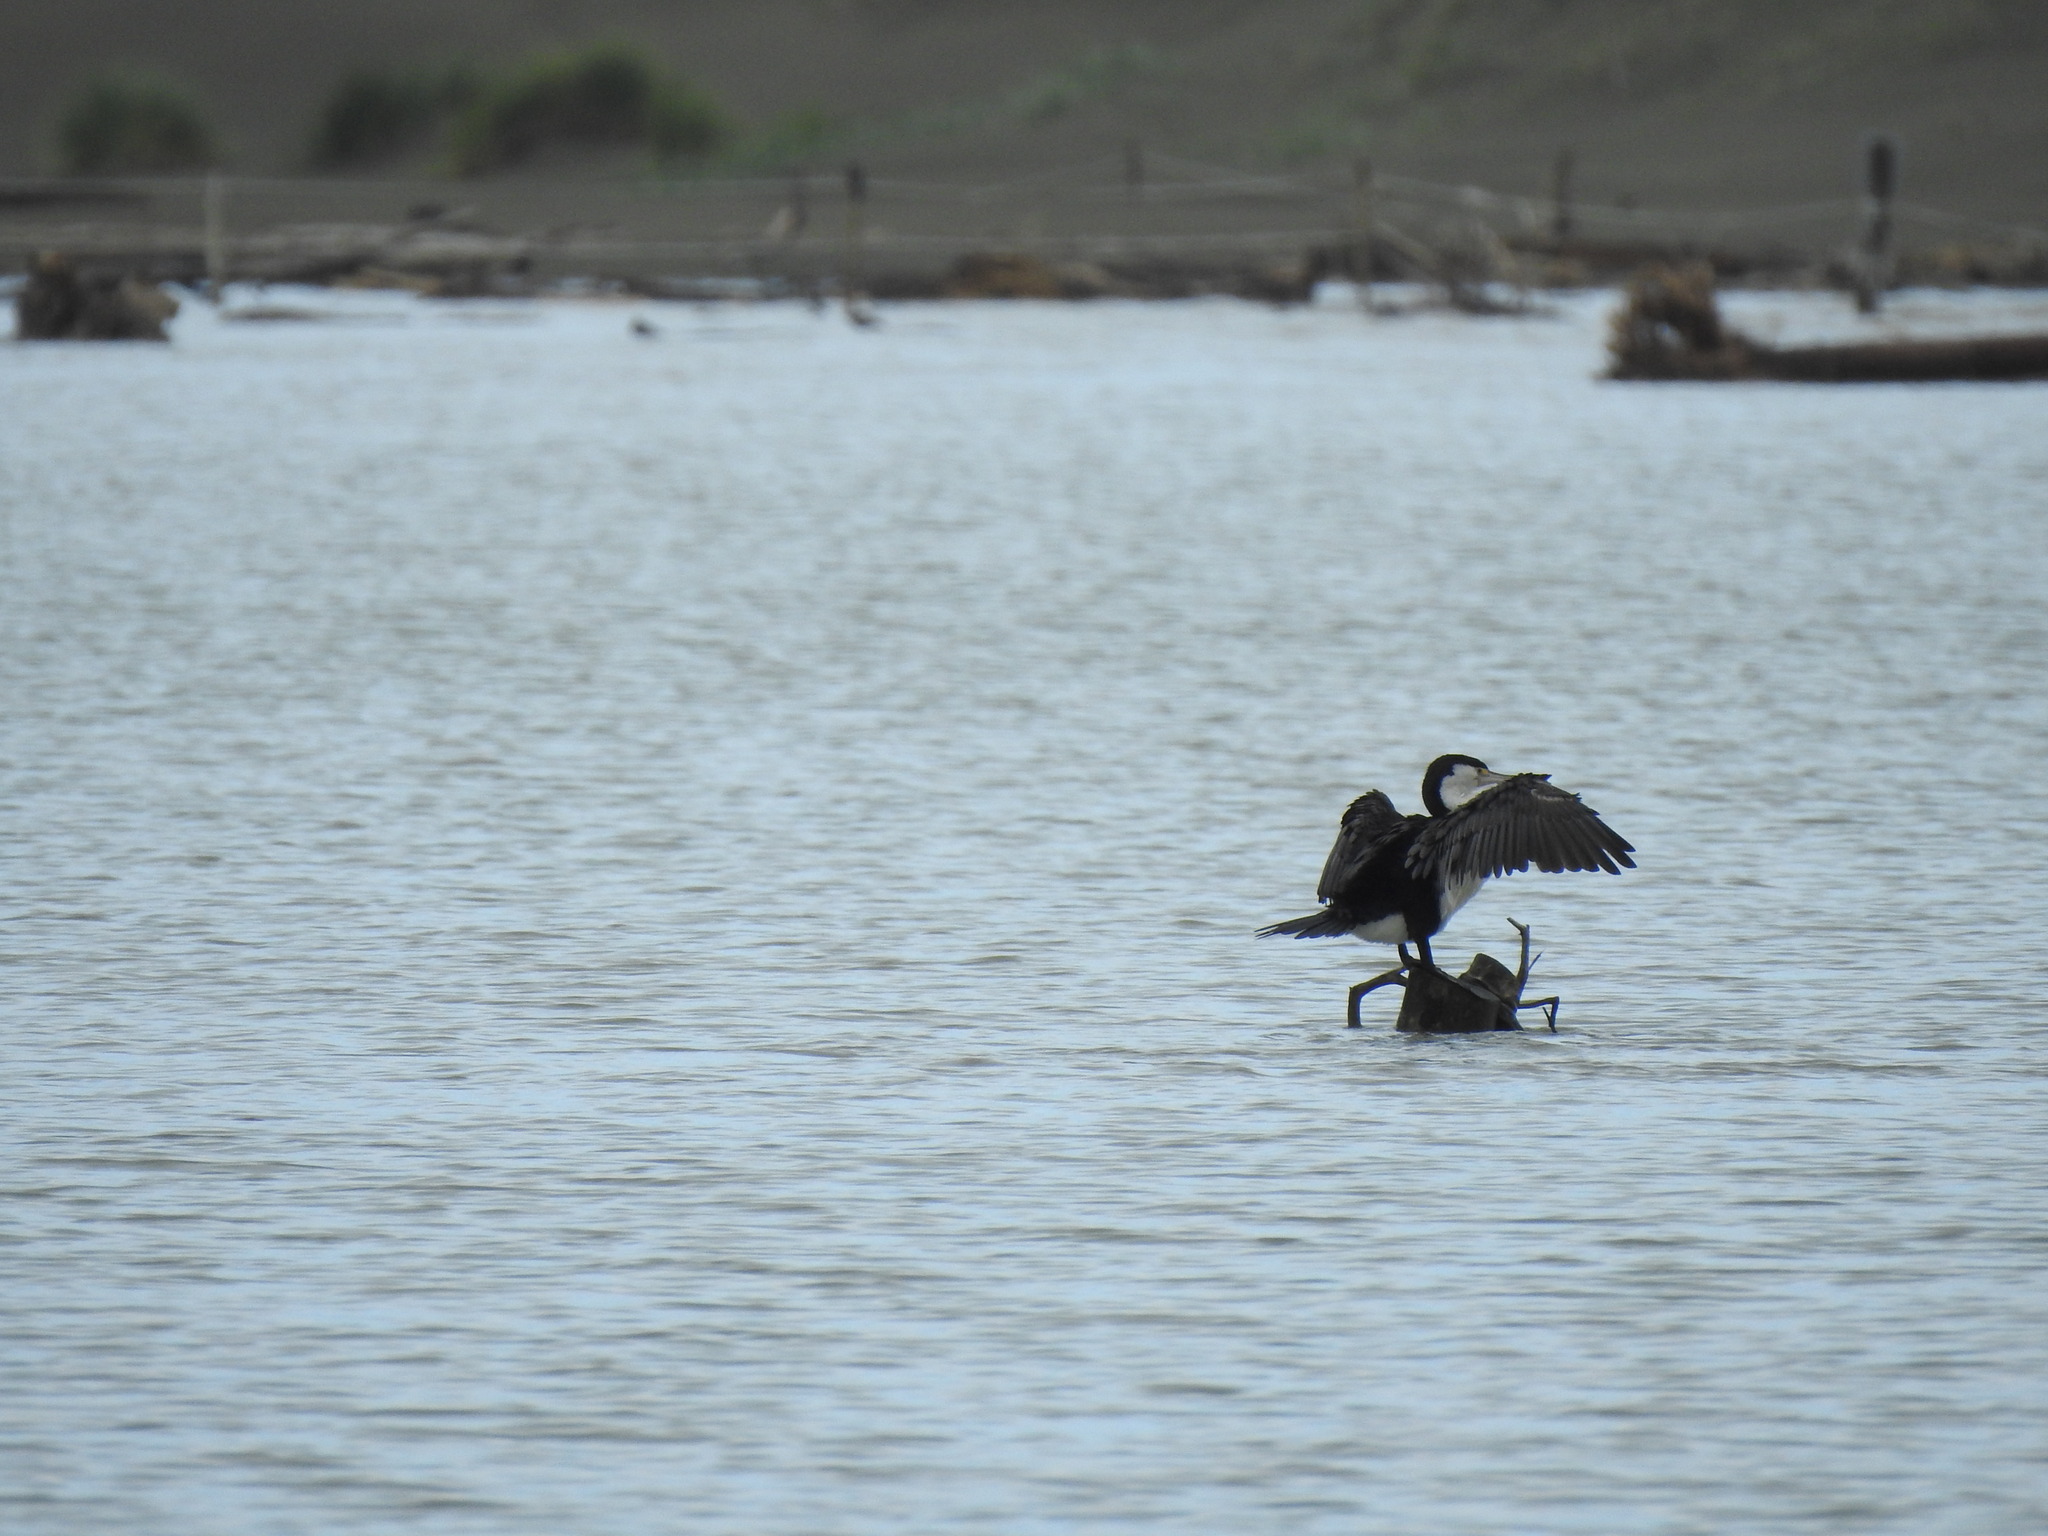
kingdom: Animalia
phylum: Chordata
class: Aves
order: Suliformes
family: Phalacrocoracidae
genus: Phalacrocorax
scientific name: Phalacrocorax varius
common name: Pied cormorant
